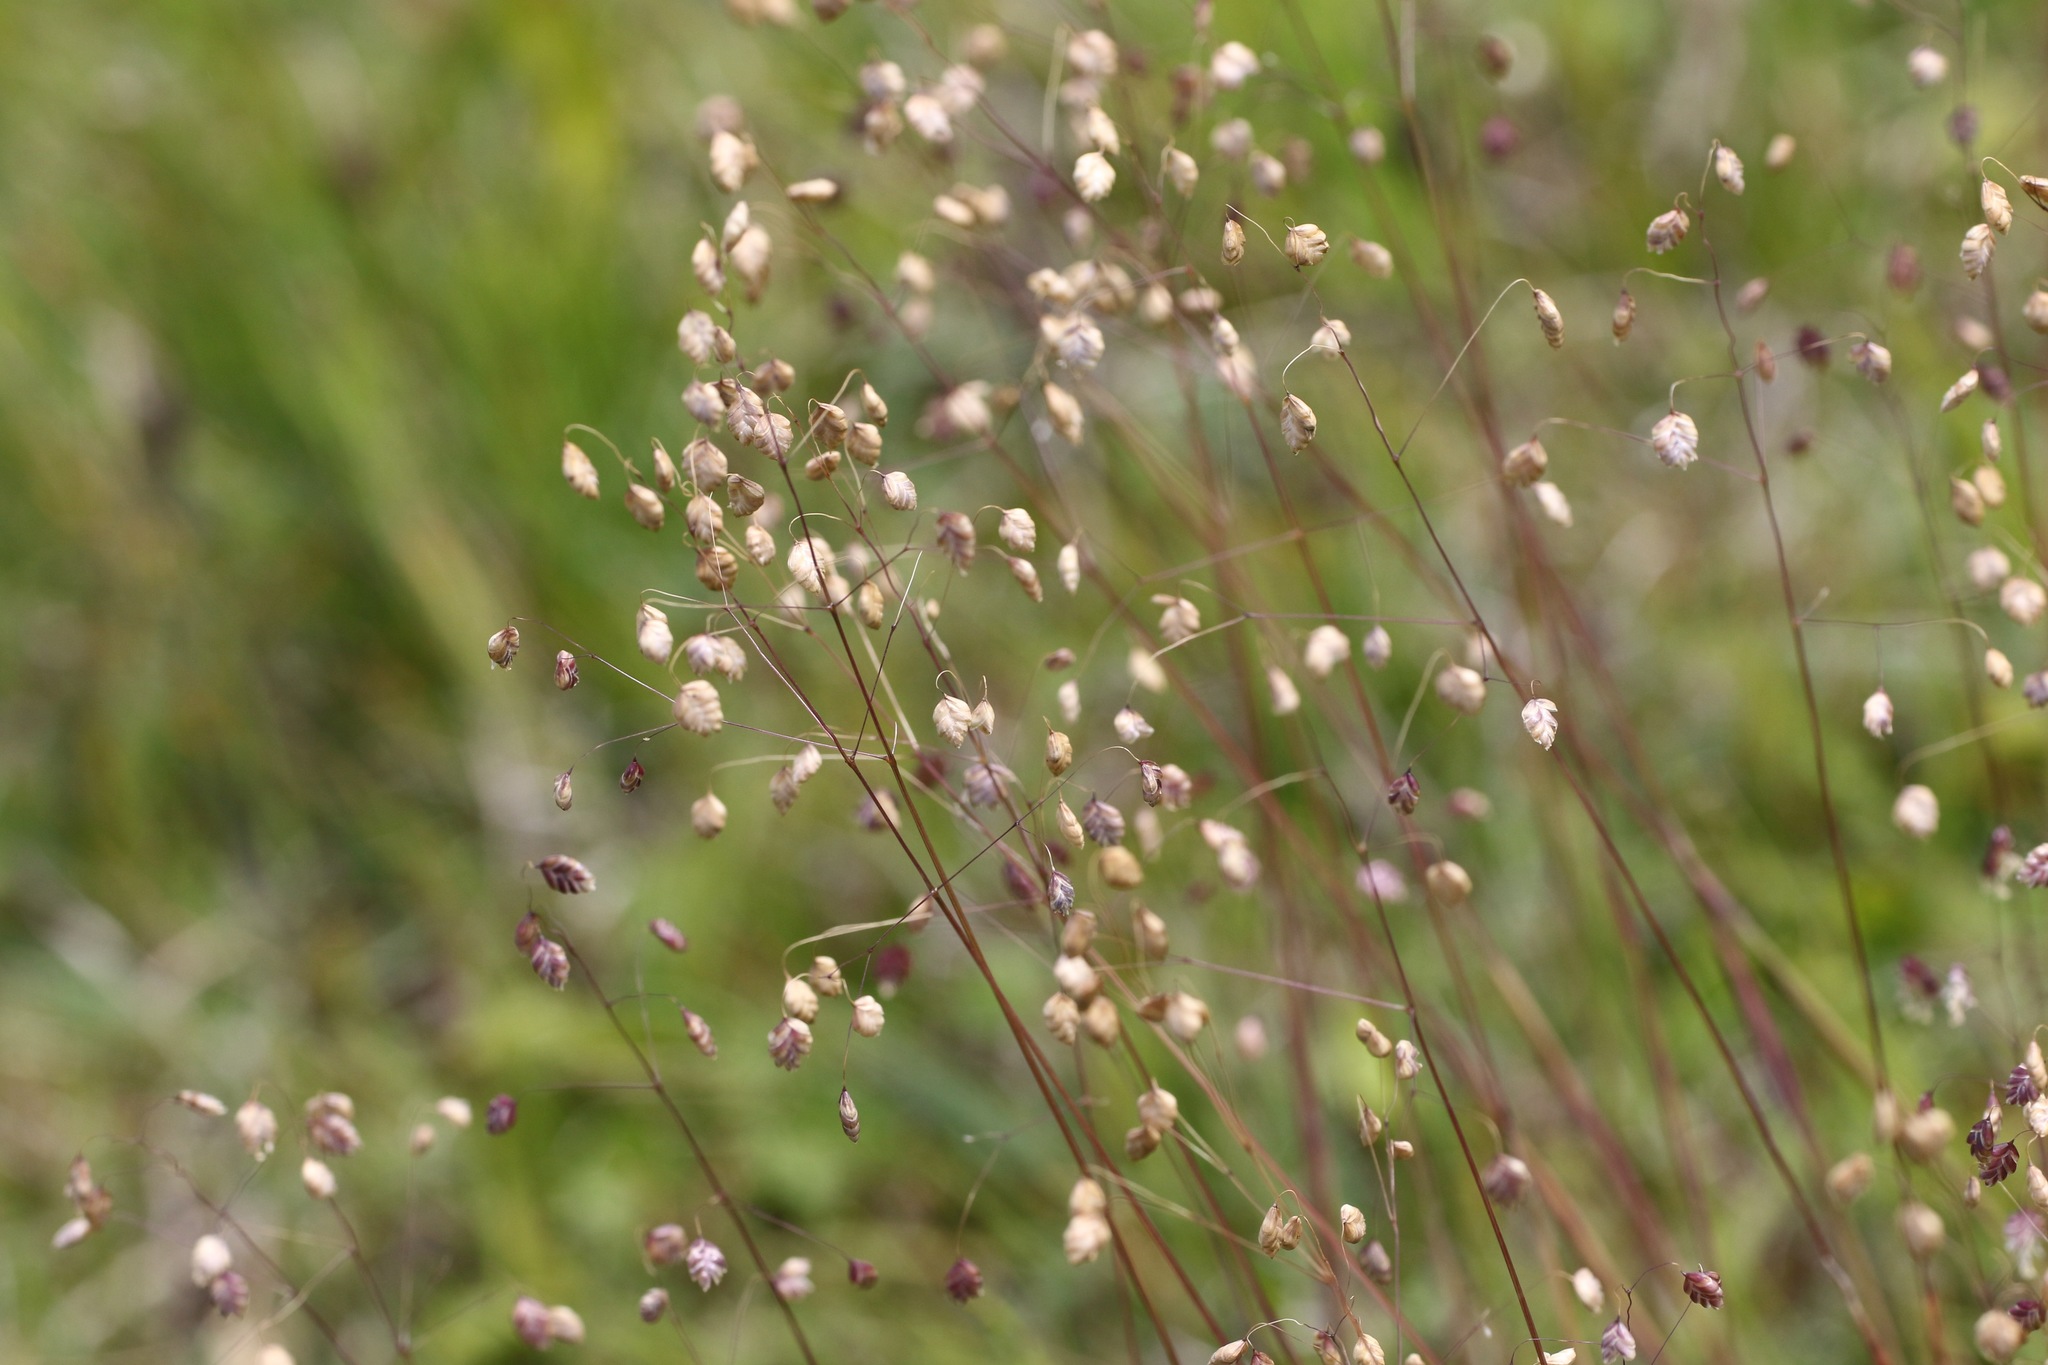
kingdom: Plantae
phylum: Tracheophyta
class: Liliopsida
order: Poales
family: Poaceae
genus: Briza
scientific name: Briza media
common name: Quaking grass
